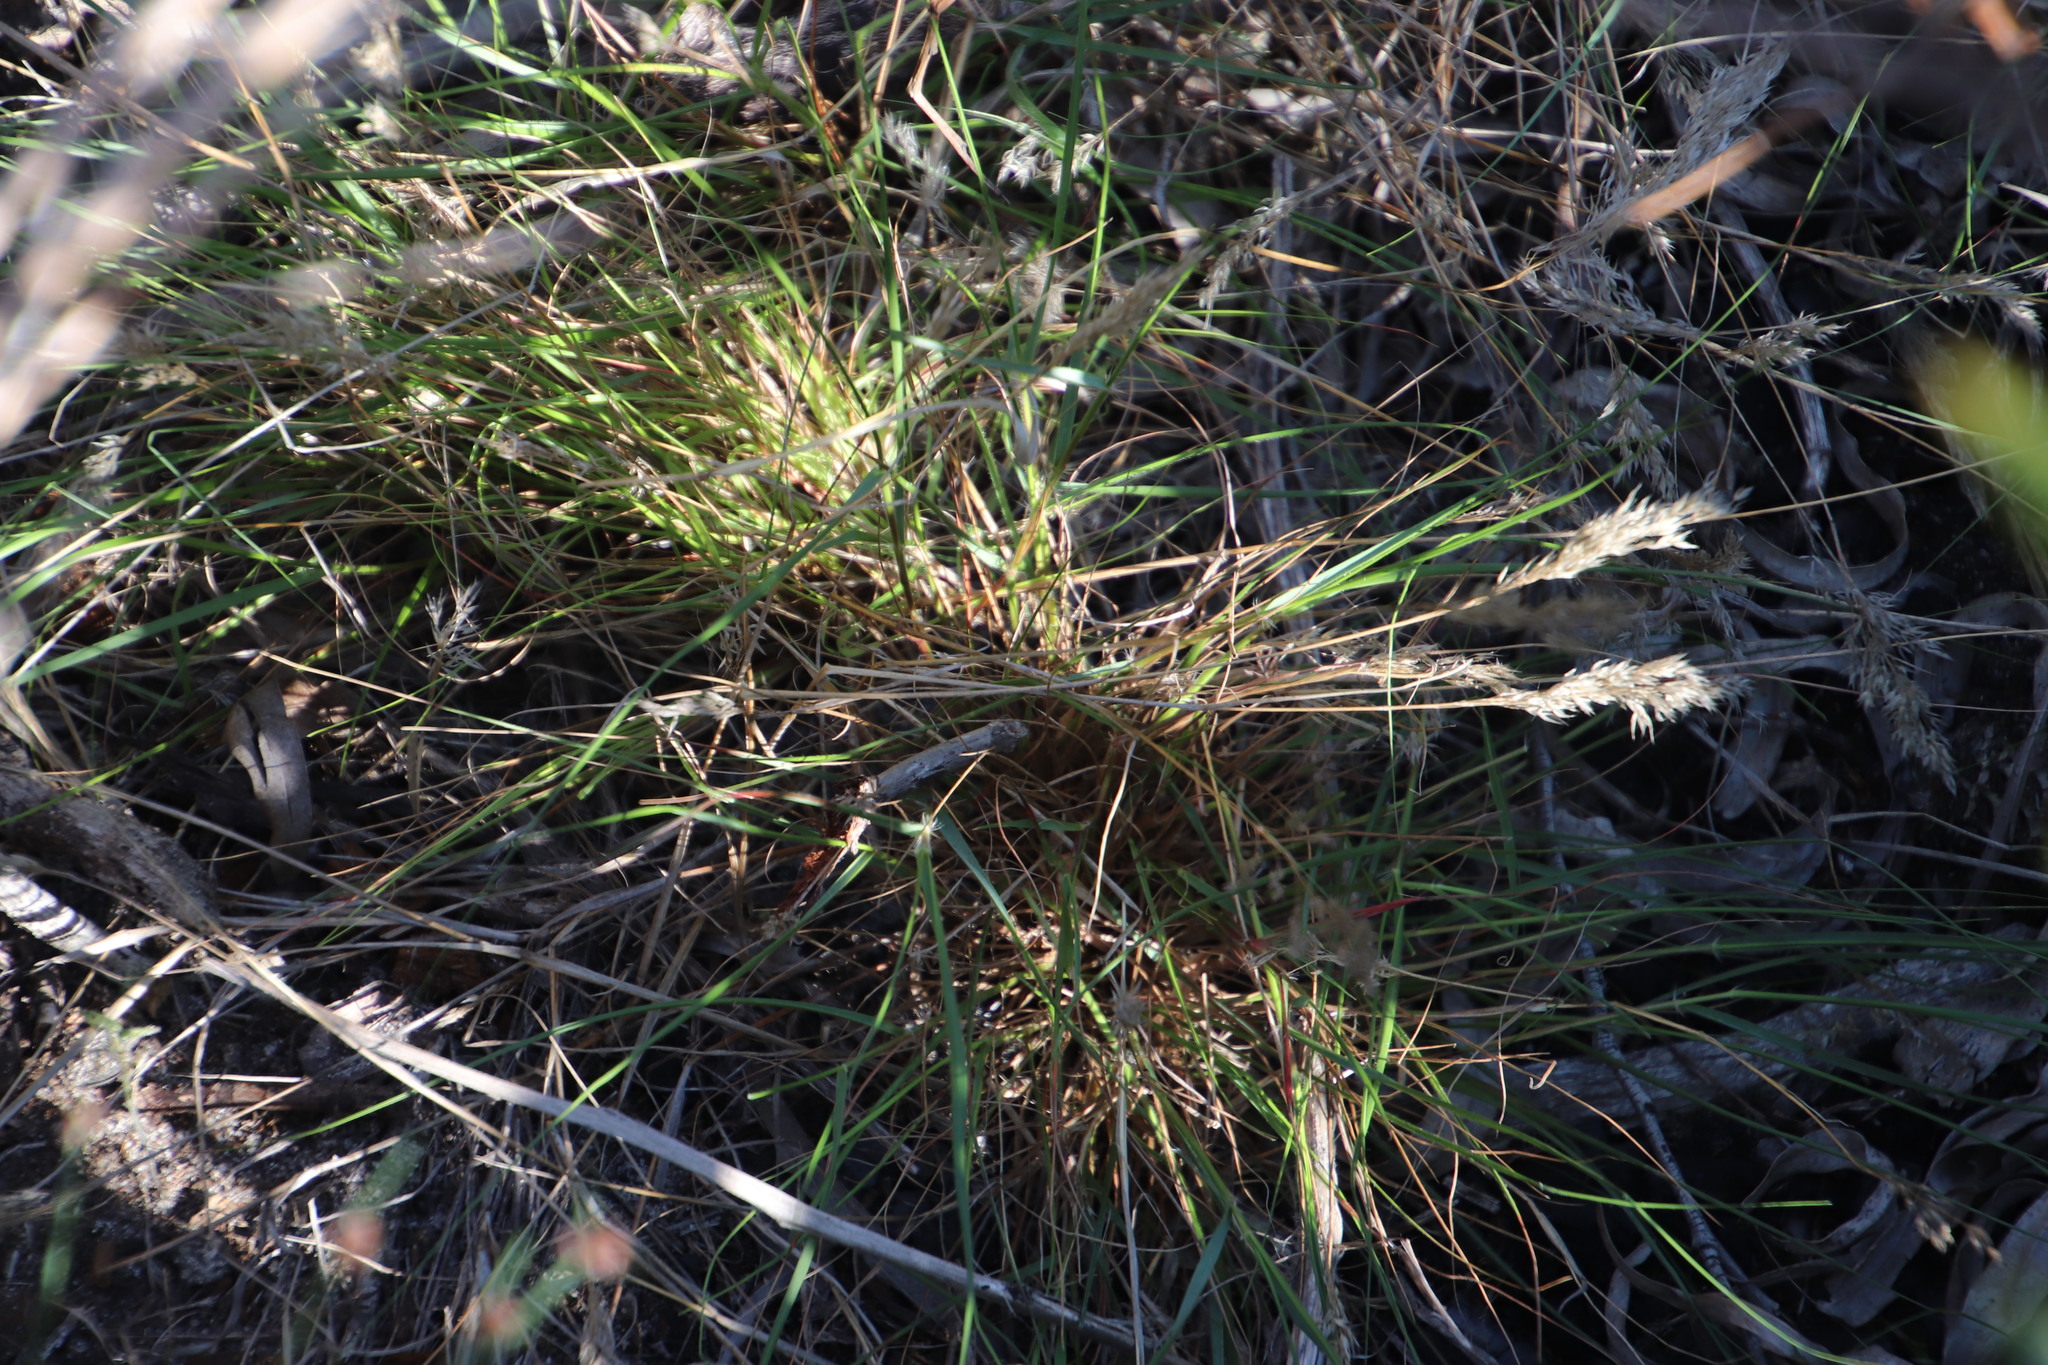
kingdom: Plantae
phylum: Tracheophyta
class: Liliopsida
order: Poales
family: Poaceae
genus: Pentameris
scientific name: Pentameris pallida
